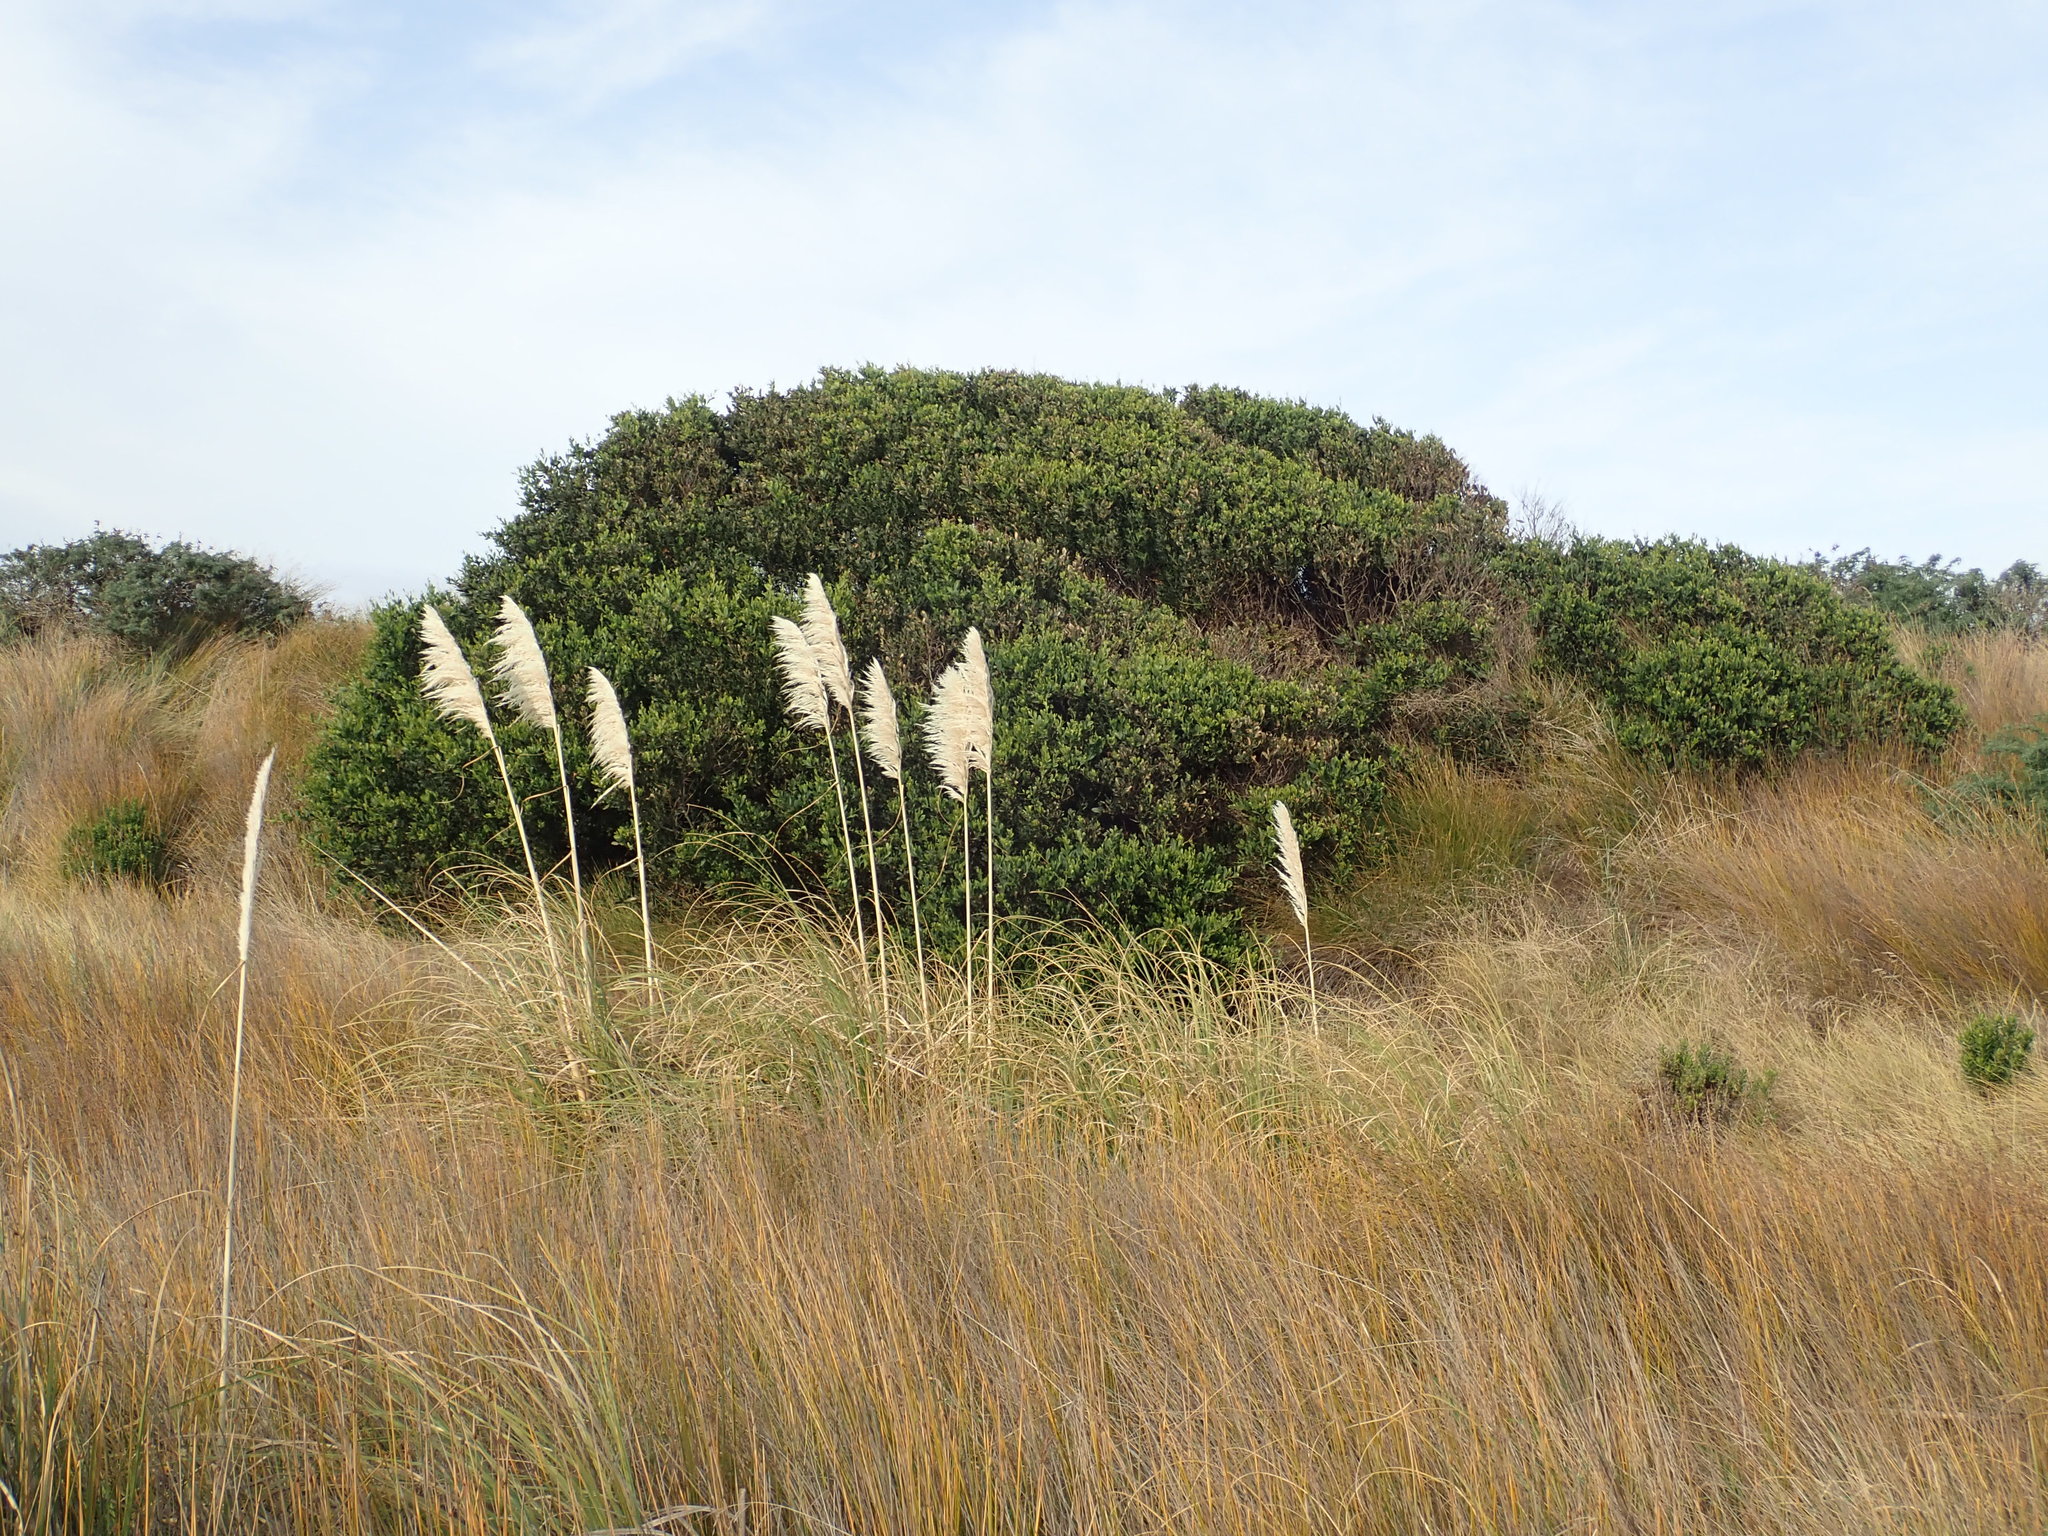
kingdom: Plantae
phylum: Tracheophyta
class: Magnoliopsida
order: Fabales
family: Fabaceae
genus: Acacia
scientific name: Acacia longifolia
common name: Sydney golden wattle
